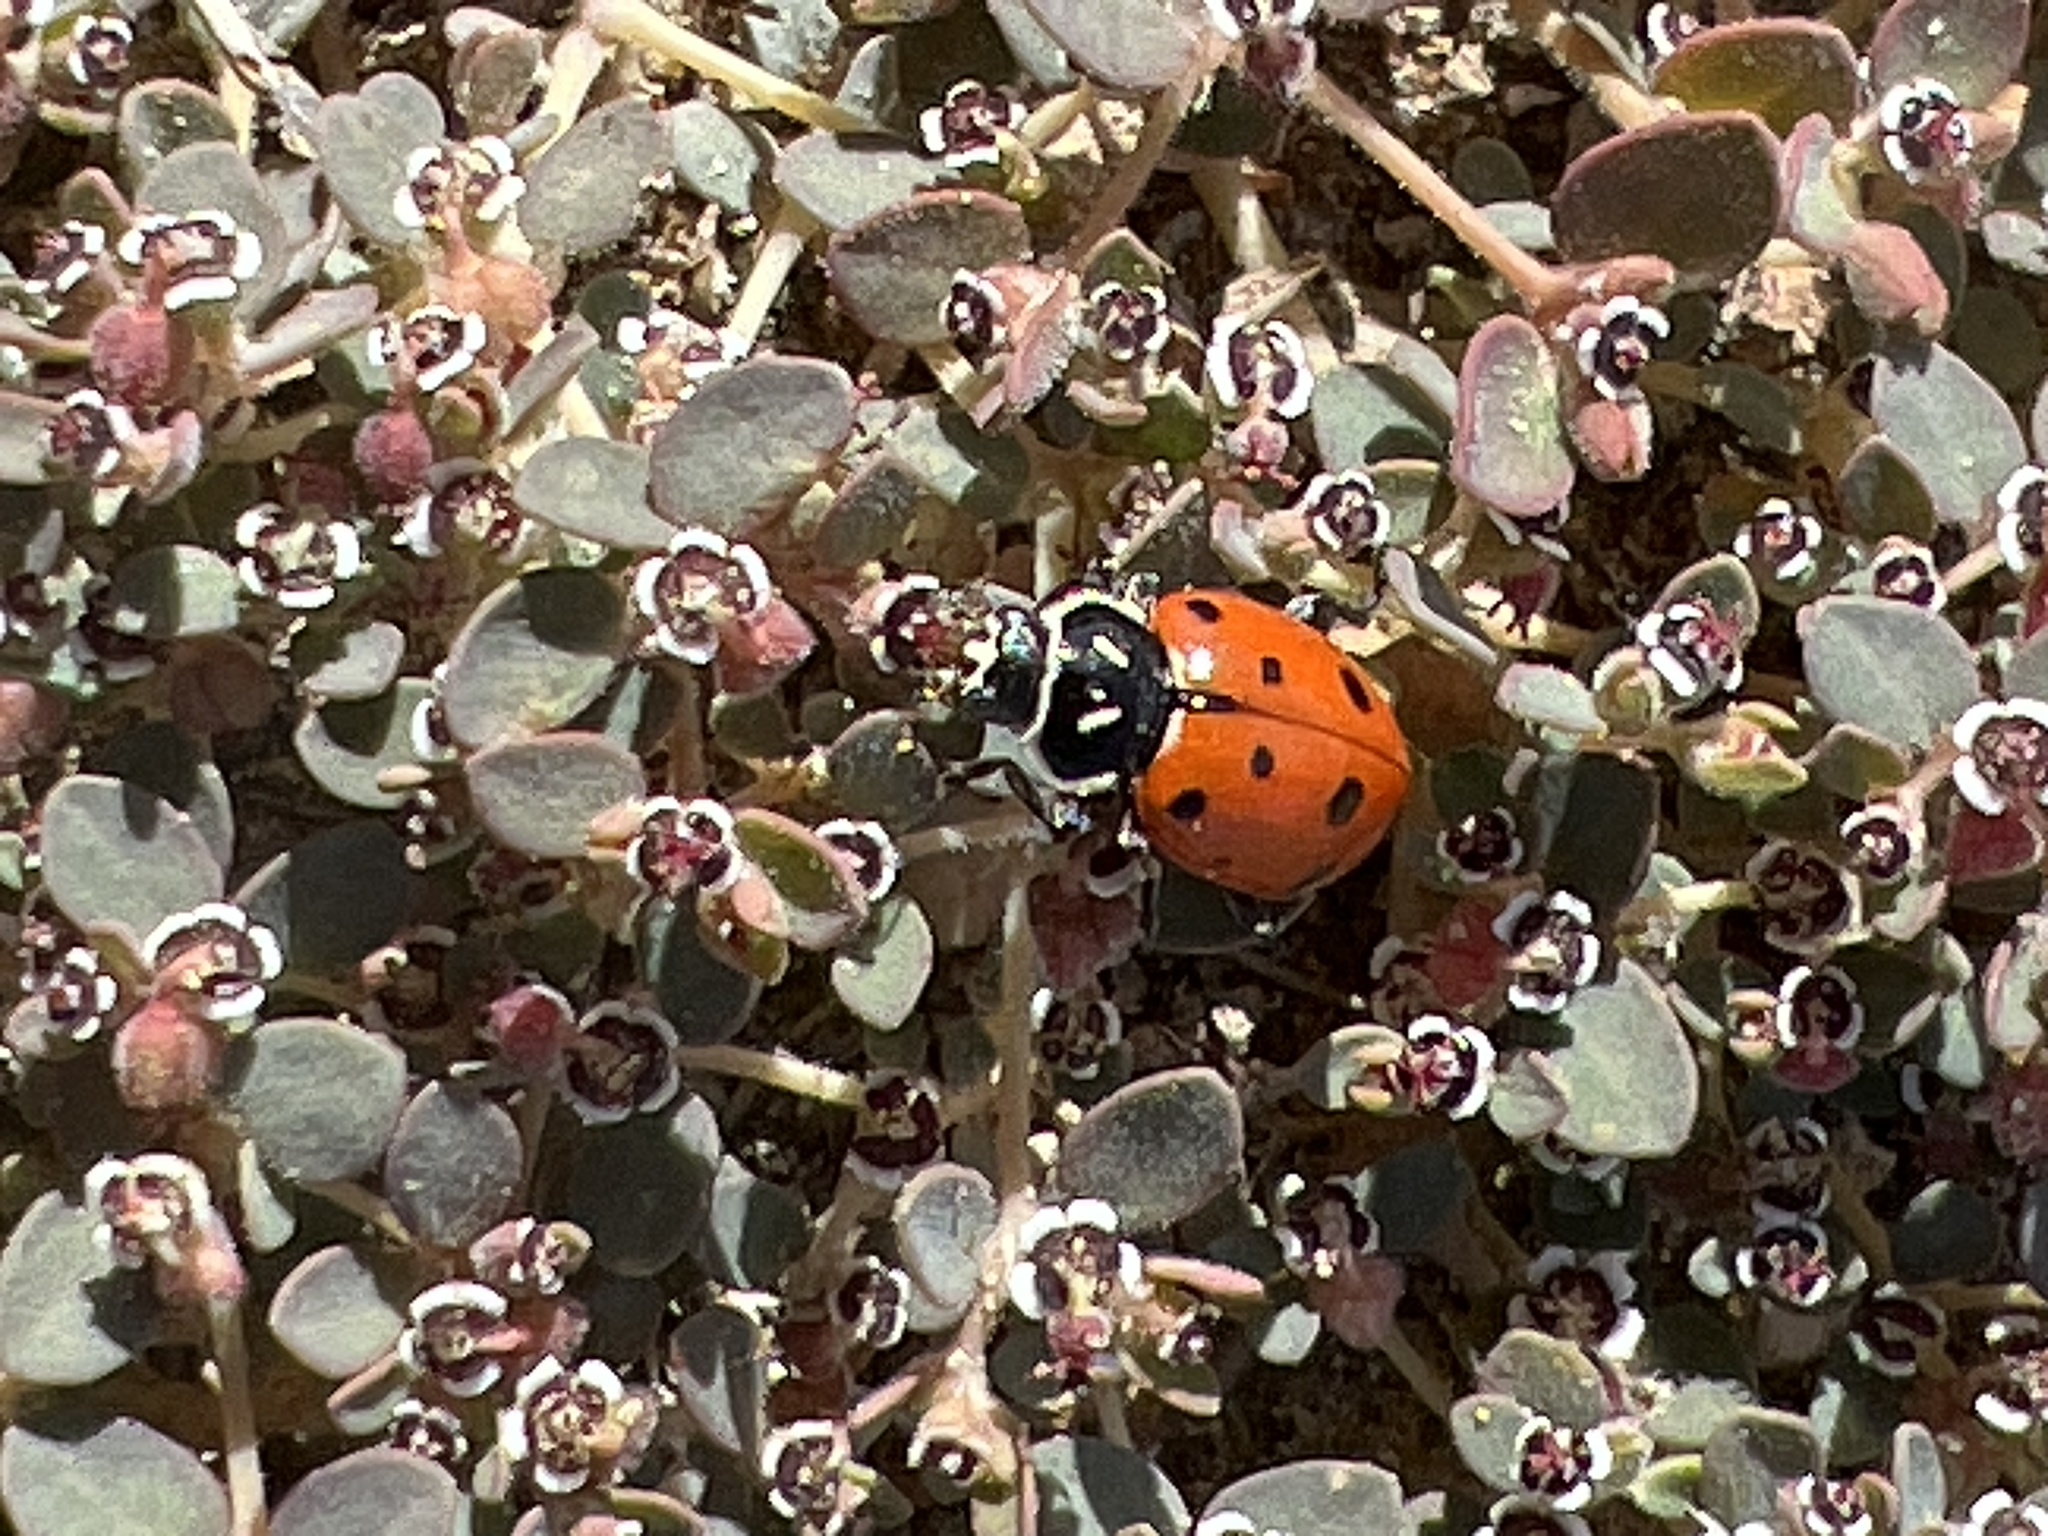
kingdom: Animalia
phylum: Arthropoda
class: Insecta
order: Coleoptera
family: Coccinellidae
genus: Hippodamia
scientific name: Hippodamia convergens
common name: Convergent lady beetle
